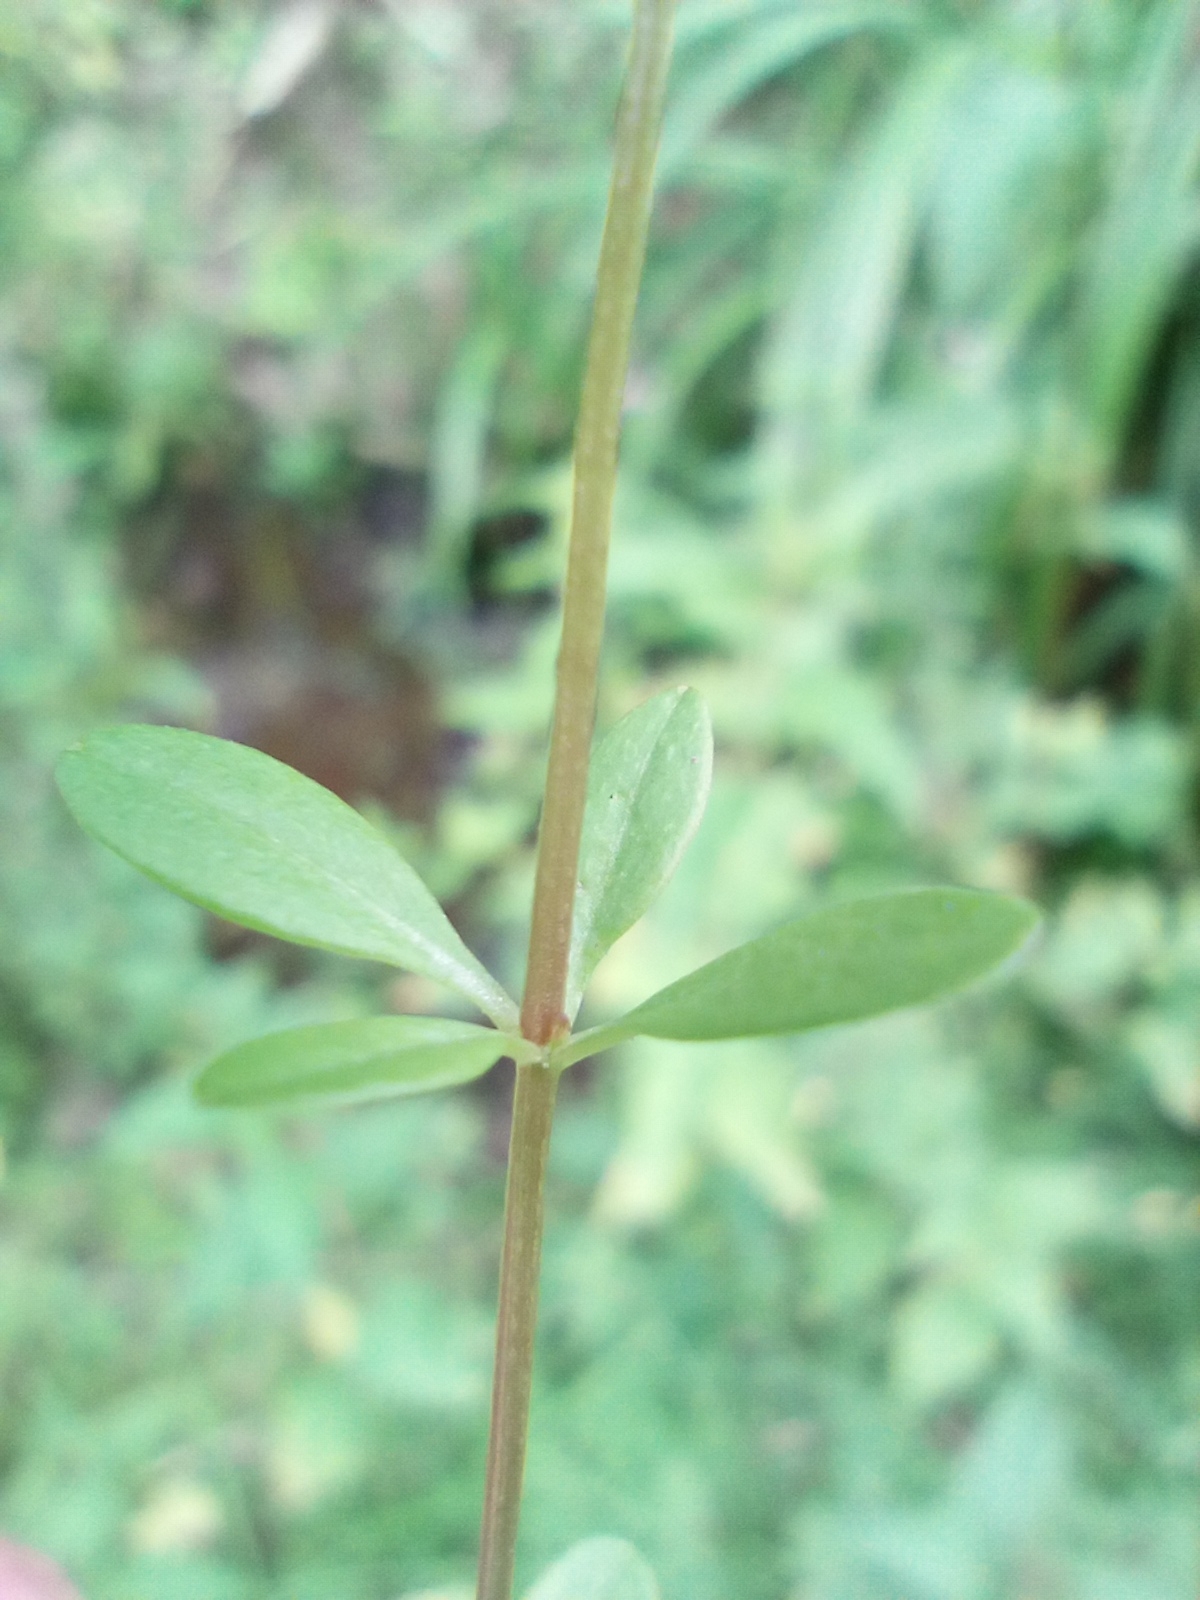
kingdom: Plantae
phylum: Tracheophyta
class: Magnoliopsida
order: Gentianales
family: Rubiaceae
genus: Galium
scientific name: Galium palustre
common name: Common marsh-bedstraw
